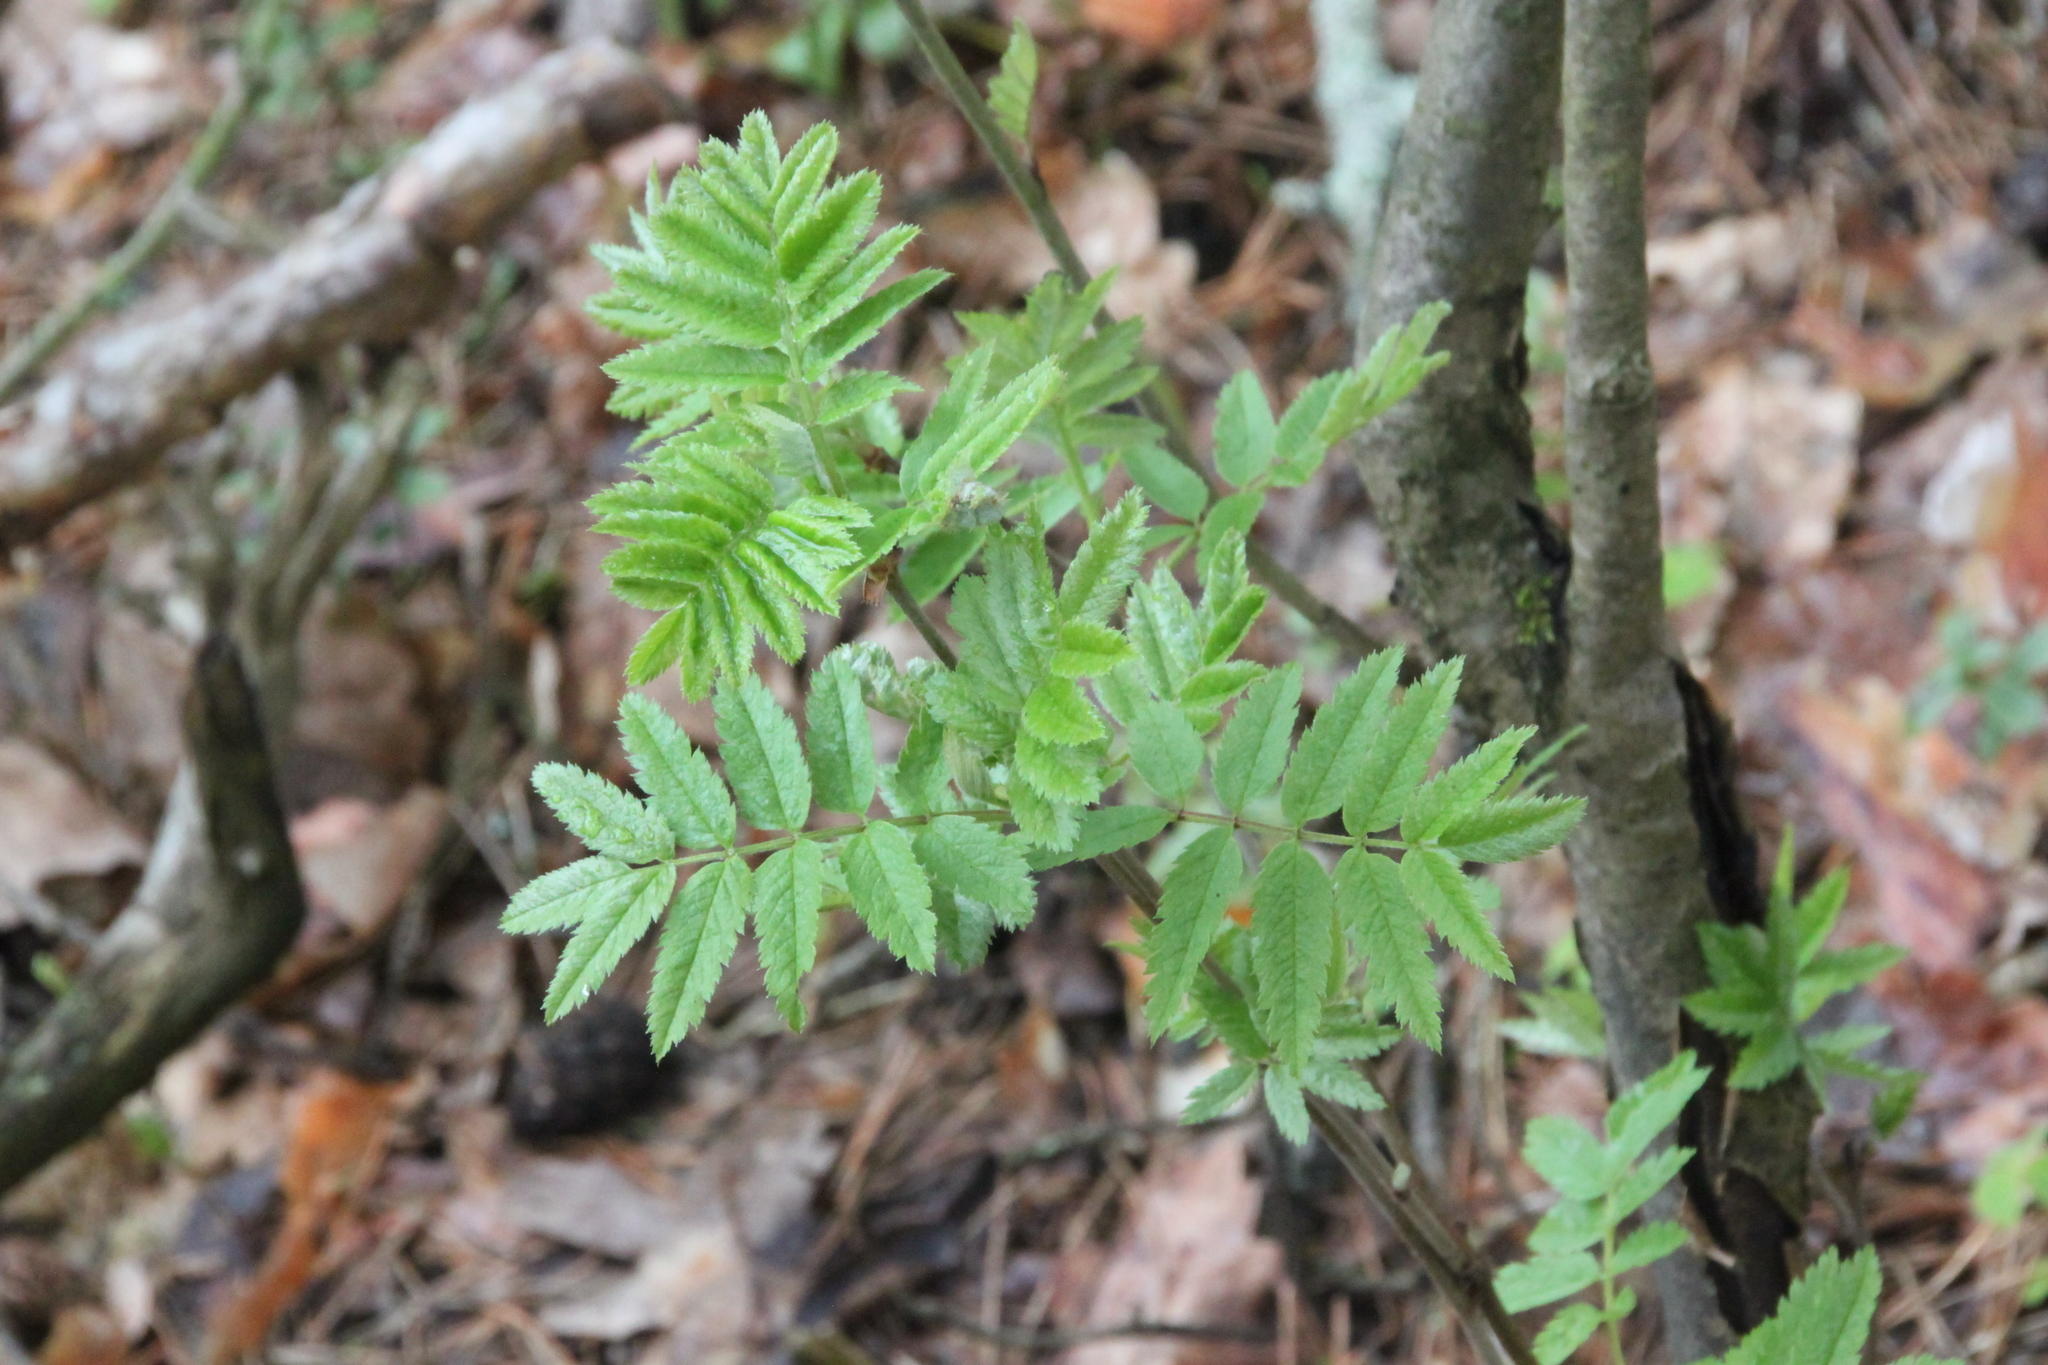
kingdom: Plantae
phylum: Tracheophyta
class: Magnoliopsida
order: Rosales
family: Rosaceae
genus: Sorbus
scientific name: Sorbus aucuparia
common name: Rowan
